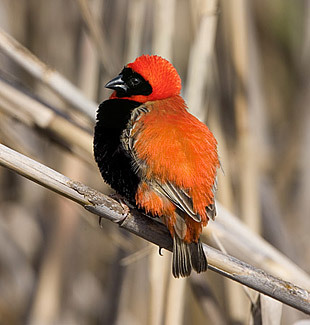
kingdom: Animalia
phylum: Chordata
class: Aves
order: Passeriformes
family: Ploceidae
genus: Euplectes
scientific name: Euplectes orix
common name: Southern red bishop
